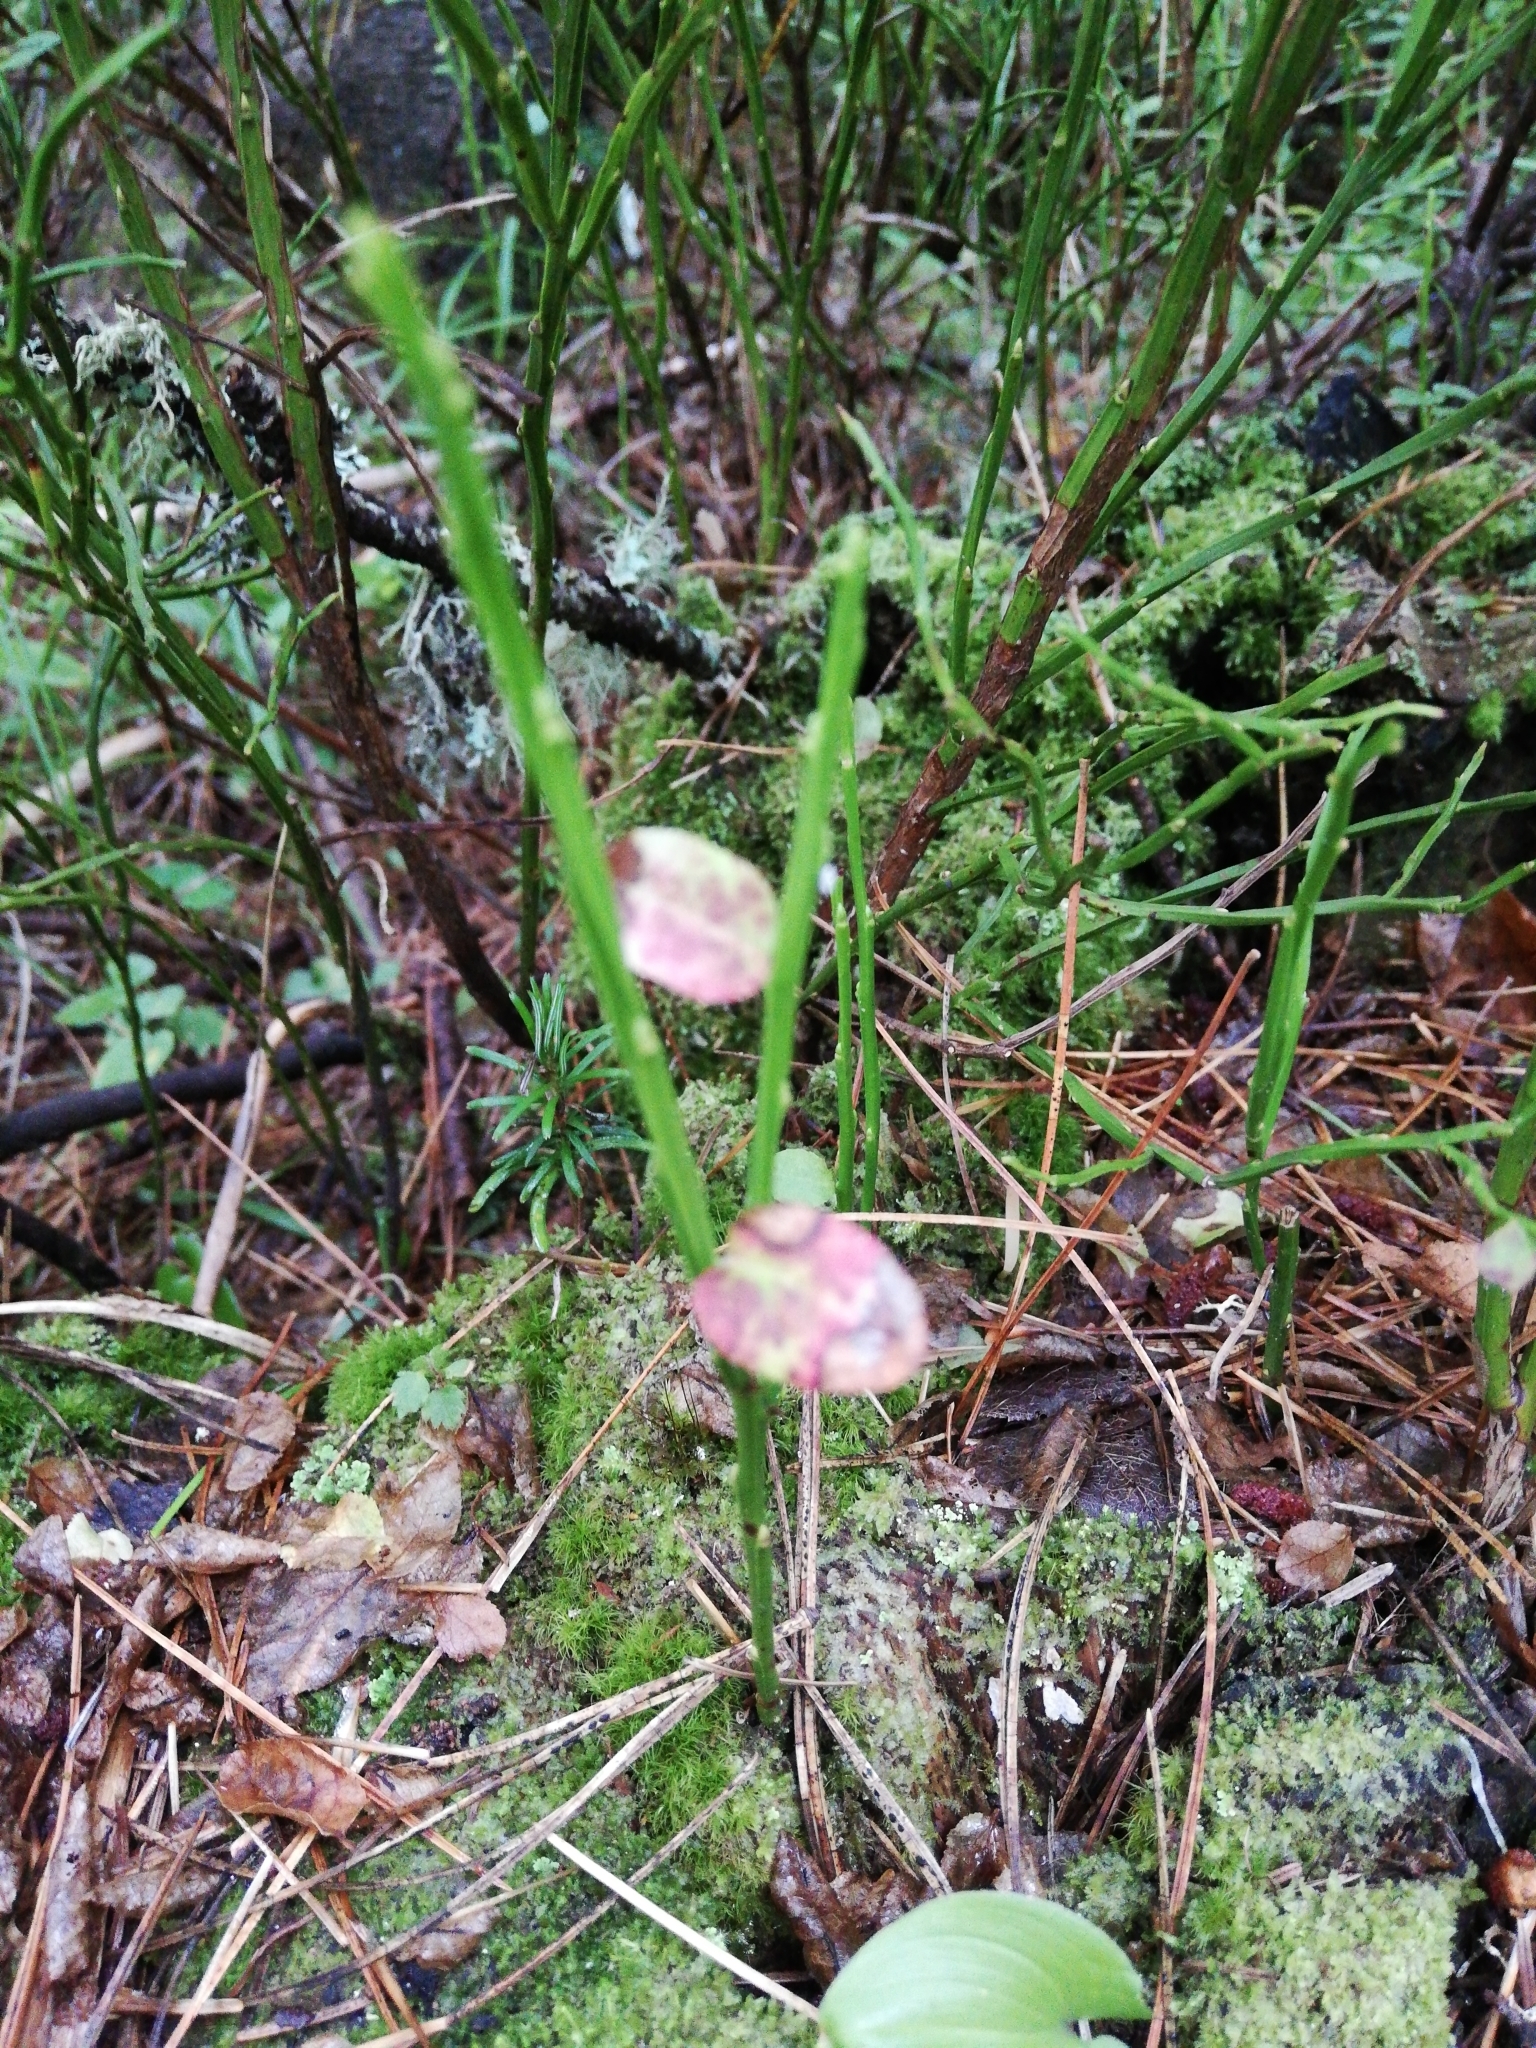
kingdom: Plantae
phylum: Tracheophyta
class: Magnoliopsida
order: Ericales
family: Ericaceae
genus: Vaccinium
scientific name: Vaccinium myrtillus
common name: Bilberry
